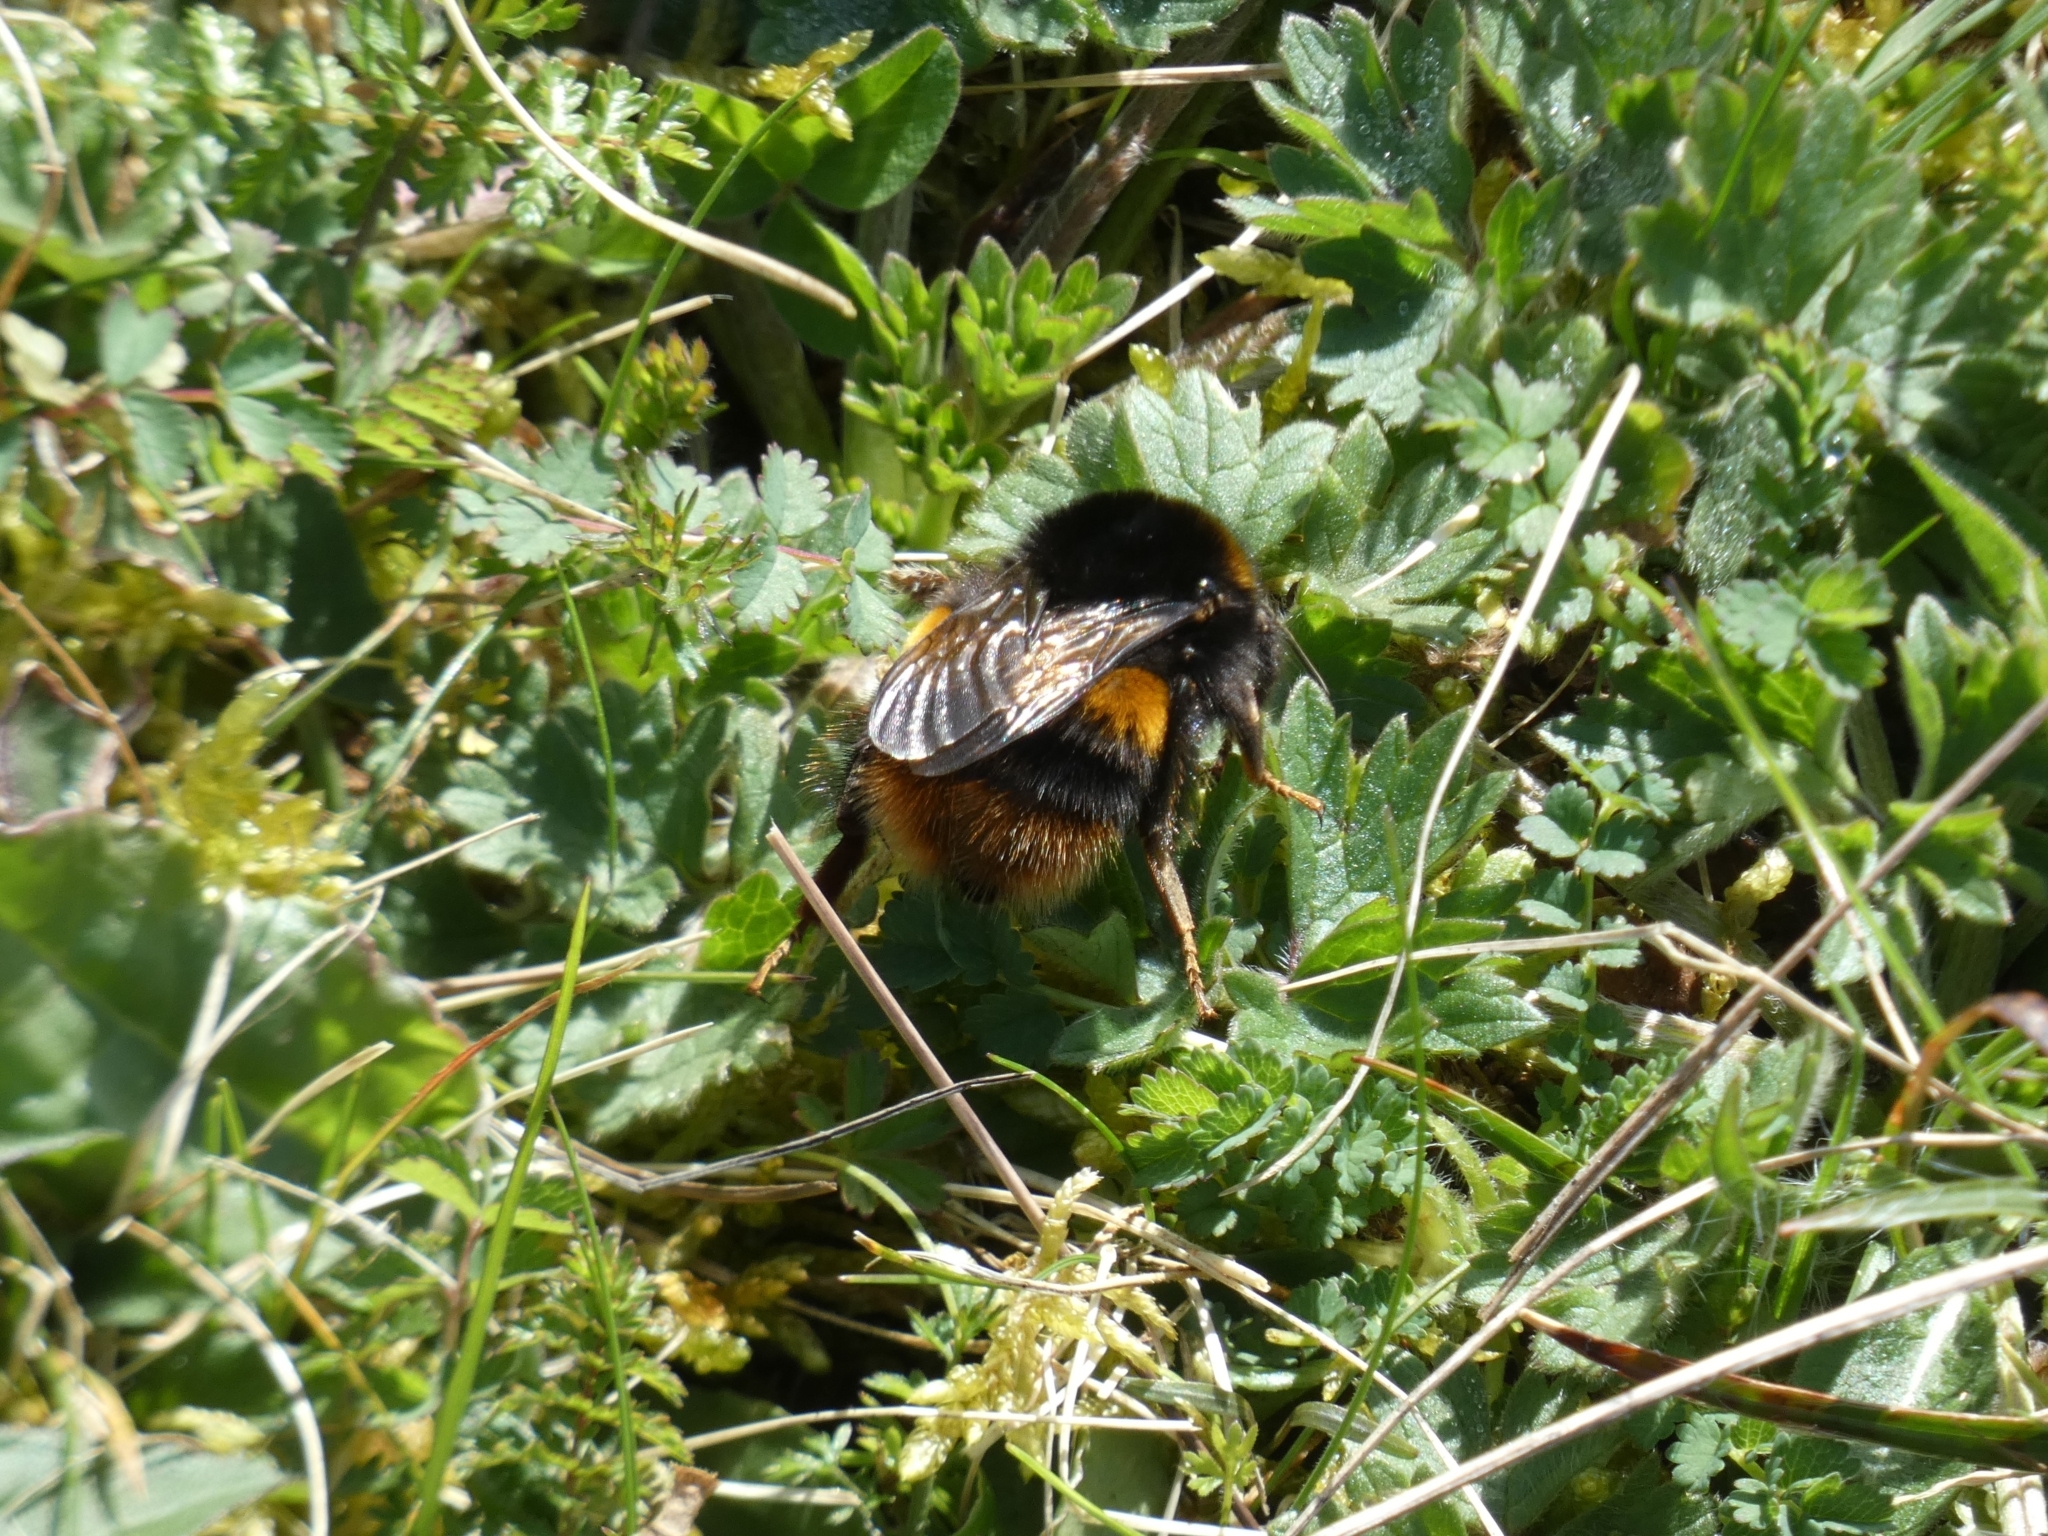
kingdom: Animalia
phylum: Arthropoda
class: Insecta
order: Hymenoptera
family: Apidae
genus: Bombus
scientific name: Bombus terrestris
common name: Buff-tailed bumblebee
